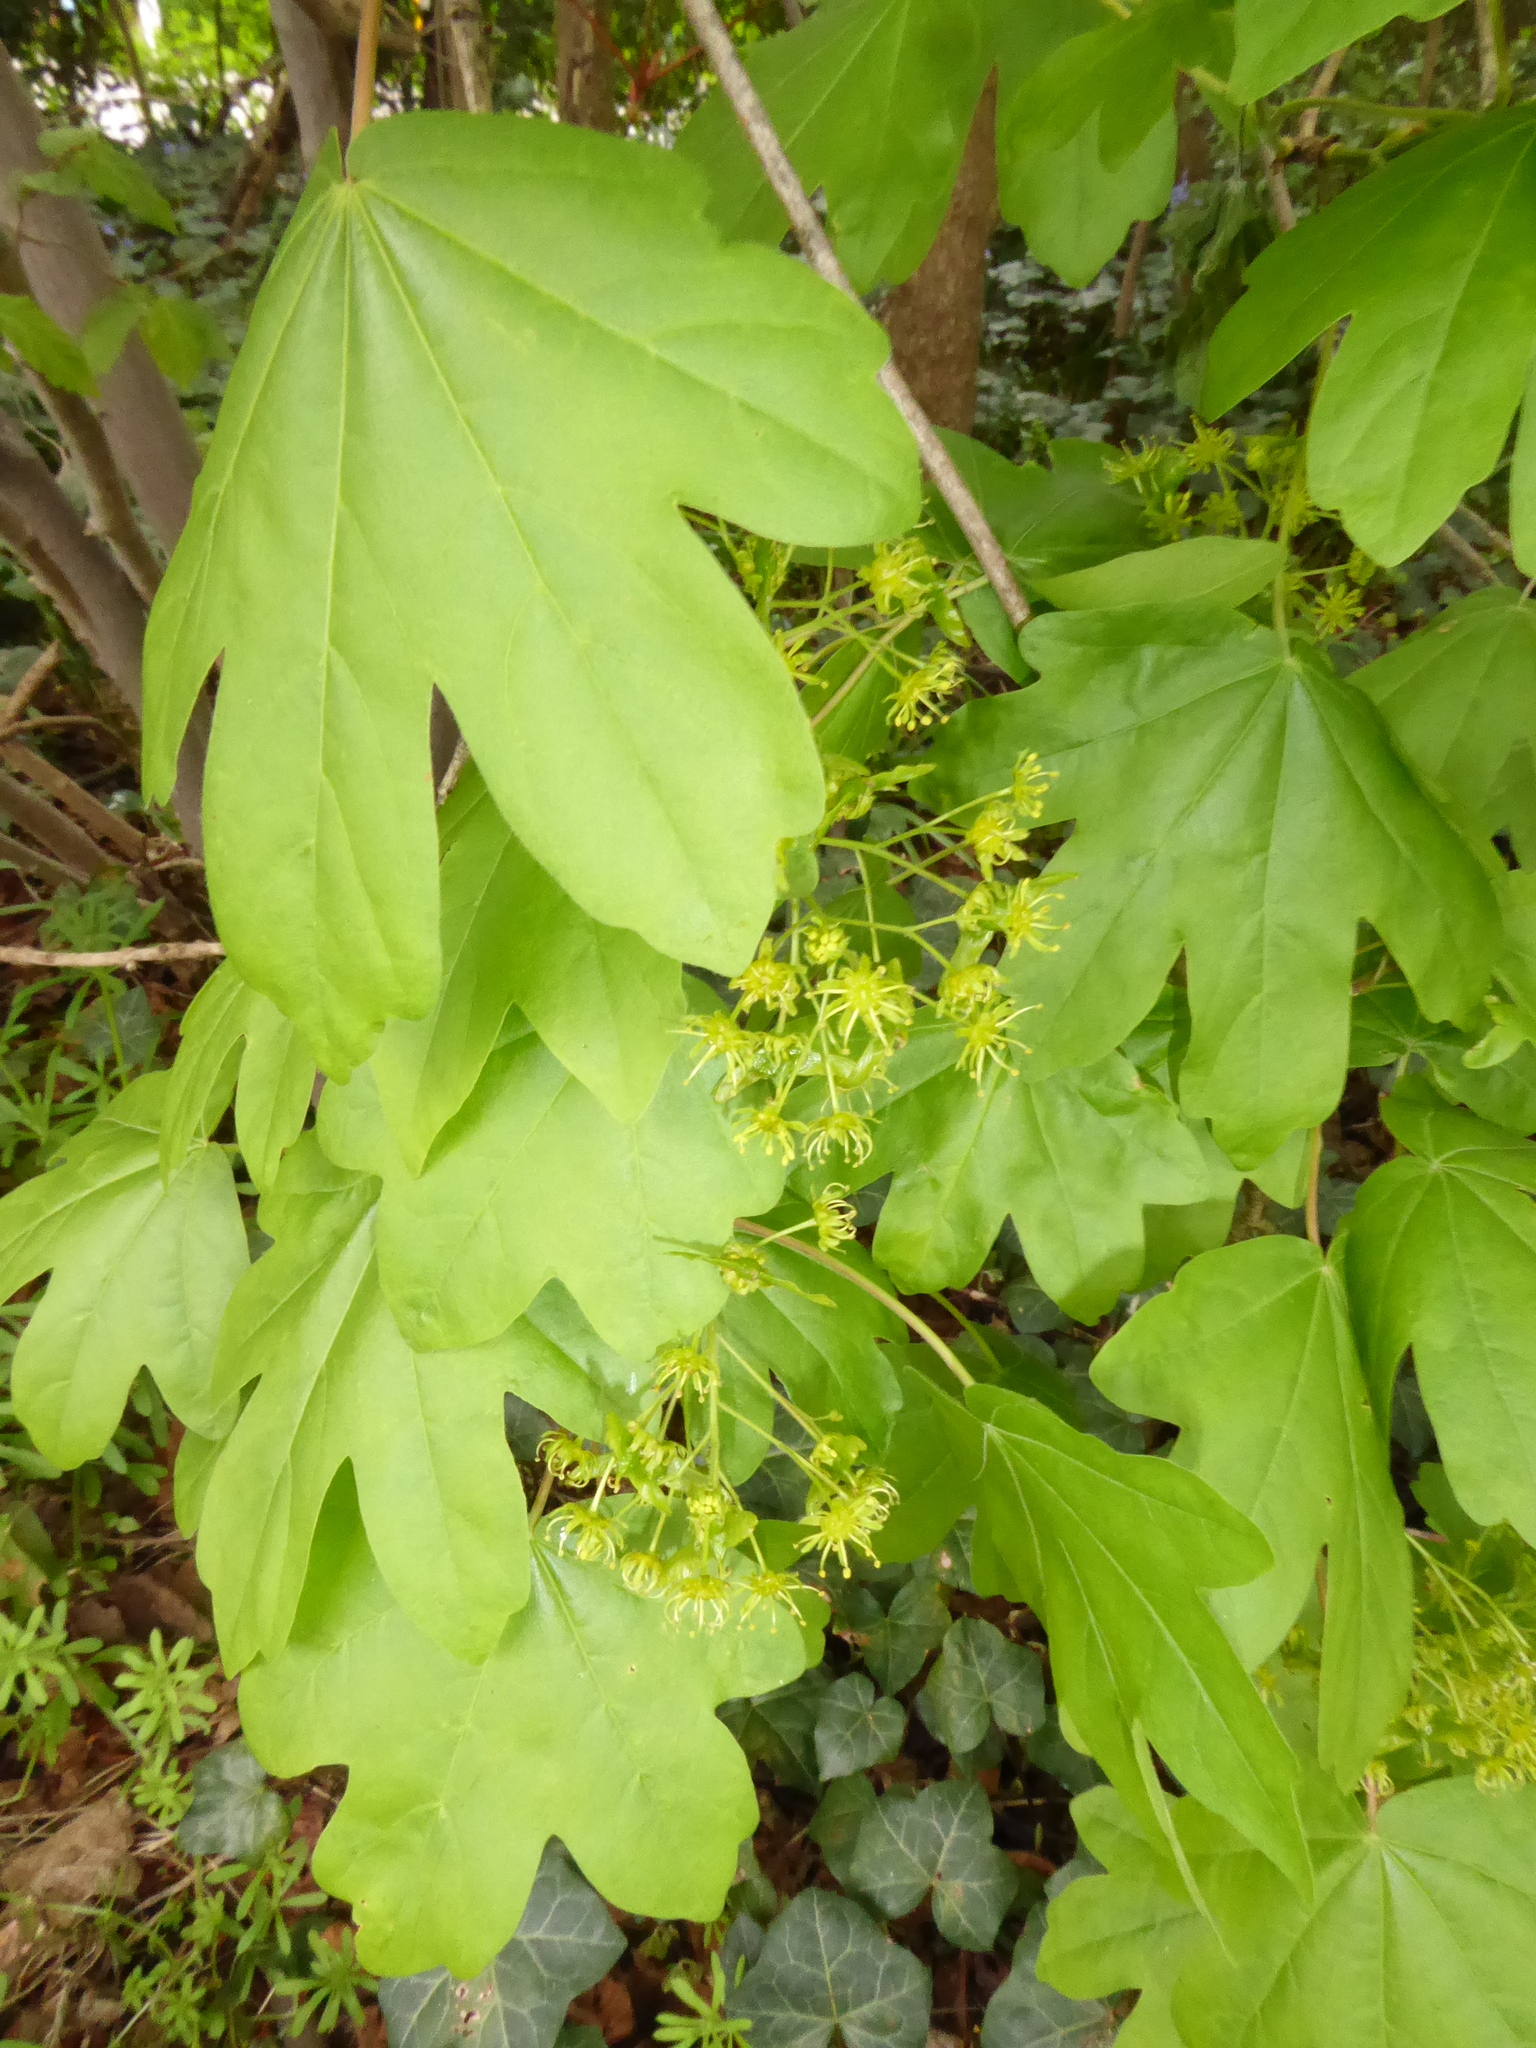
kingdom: Plantae
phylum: Tracheophyta
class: Magnoliopsida
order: Sapindales
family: Sapindaceae
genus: Acer
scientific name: Acer campestre
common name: Field maple
